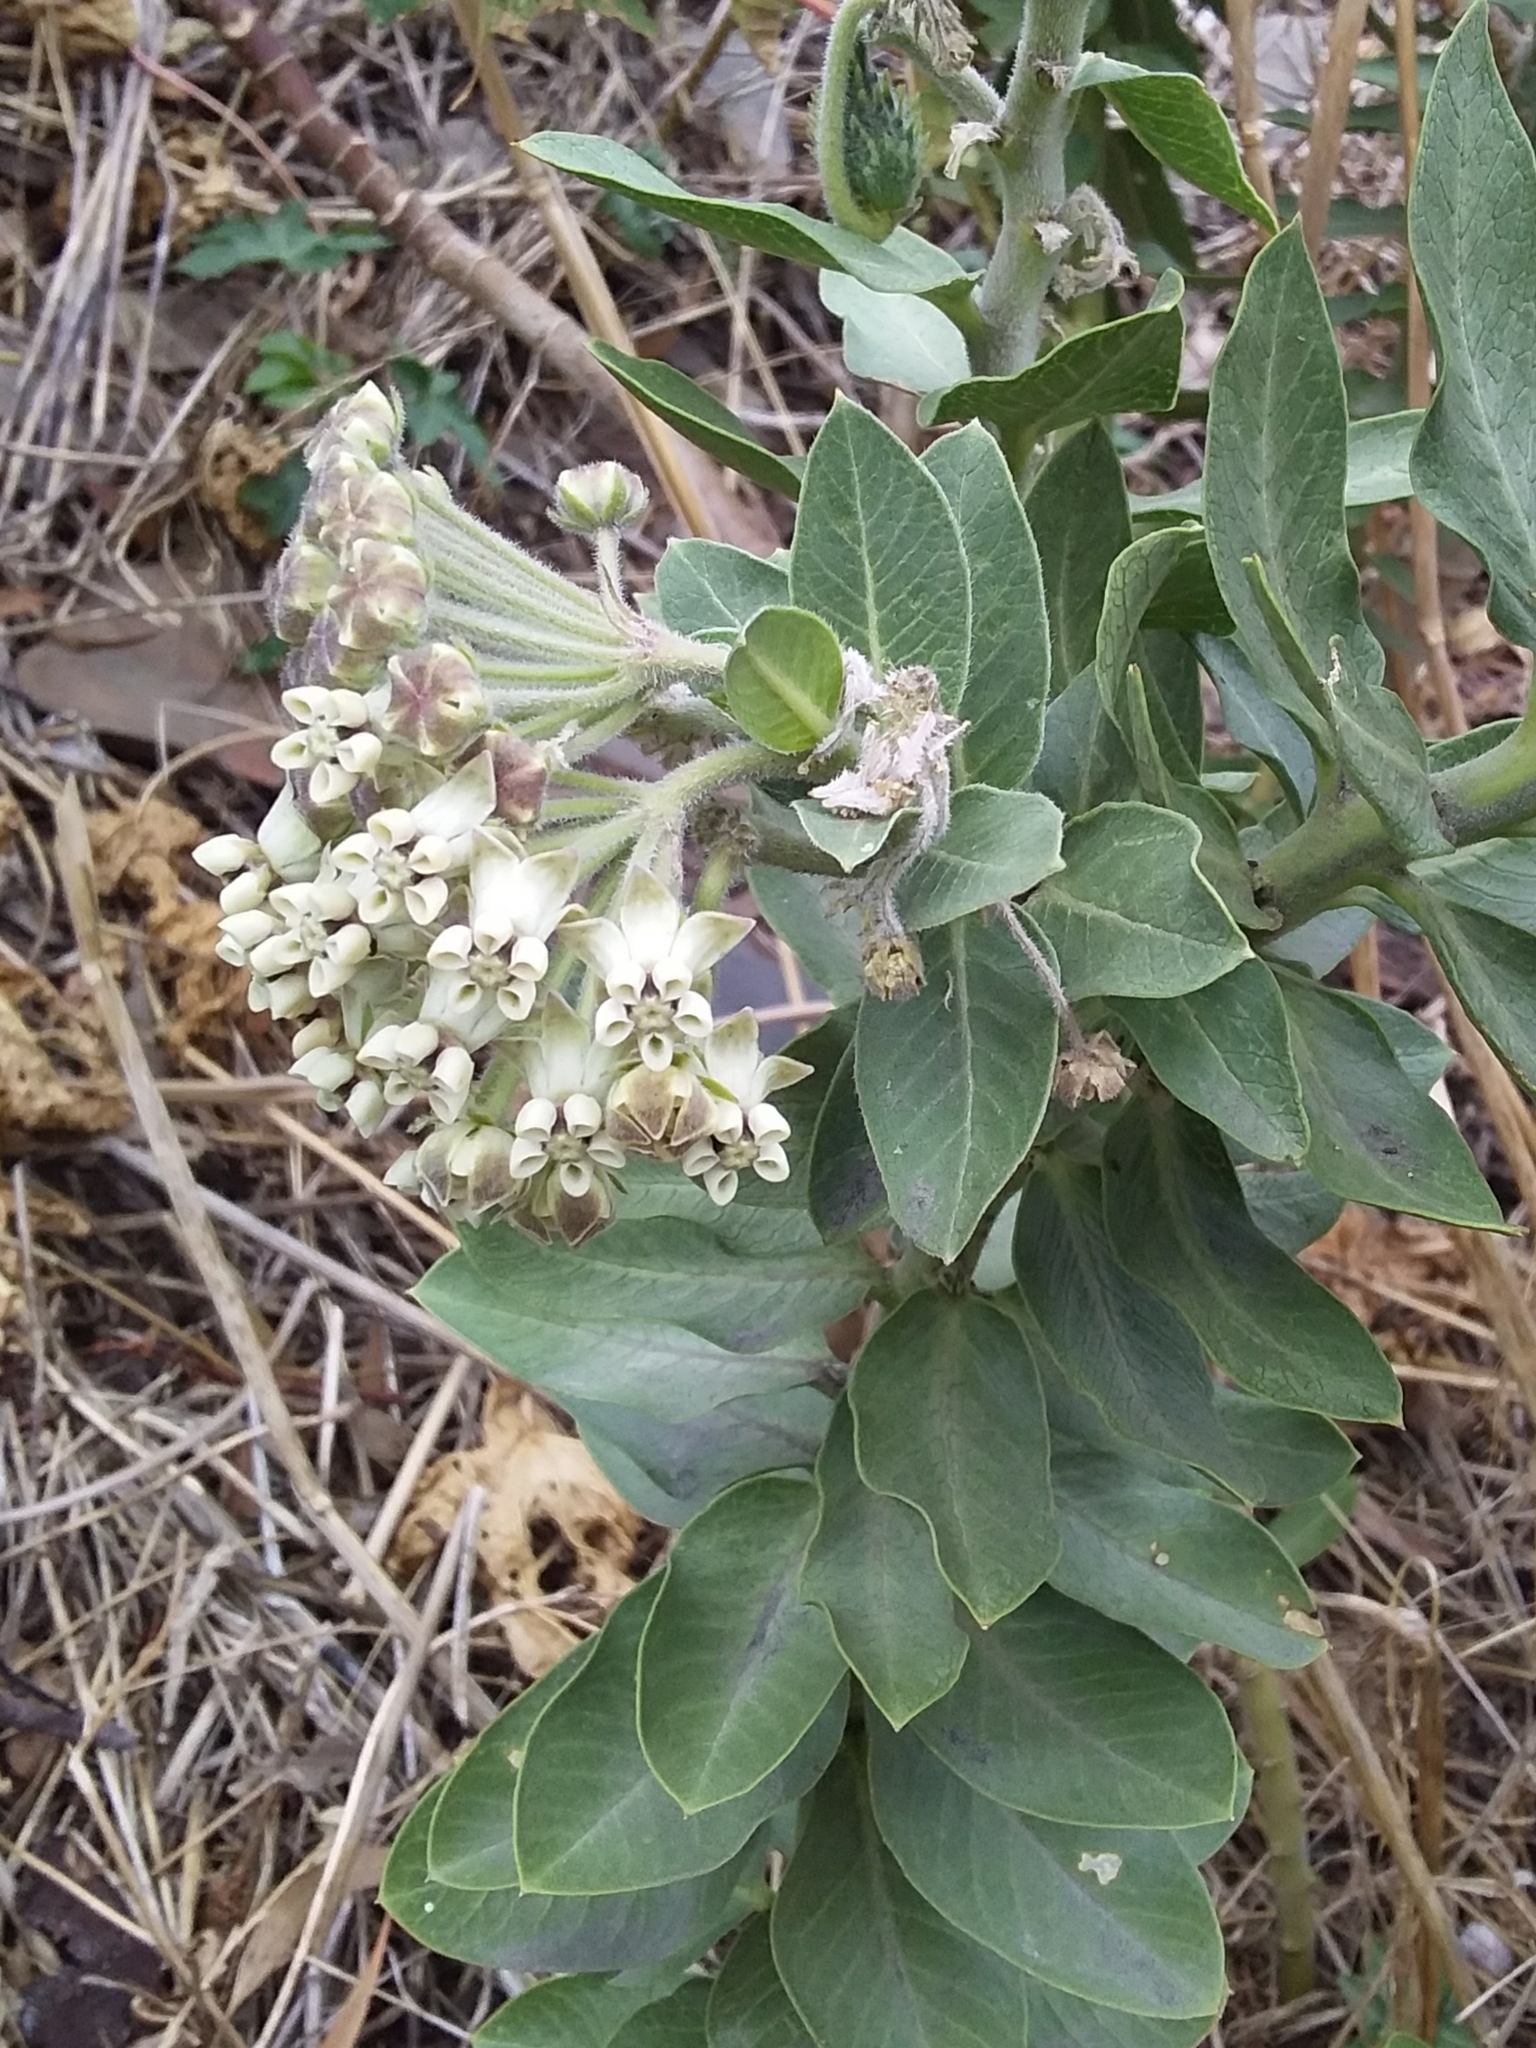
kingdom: Plantae
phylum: Tracheophyta
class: Magnoliopsida
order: Gentianales
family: Apocynaceae
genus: Gomphocarpus
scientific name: Gomphocarpus cancellatus
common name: Wild cotton
